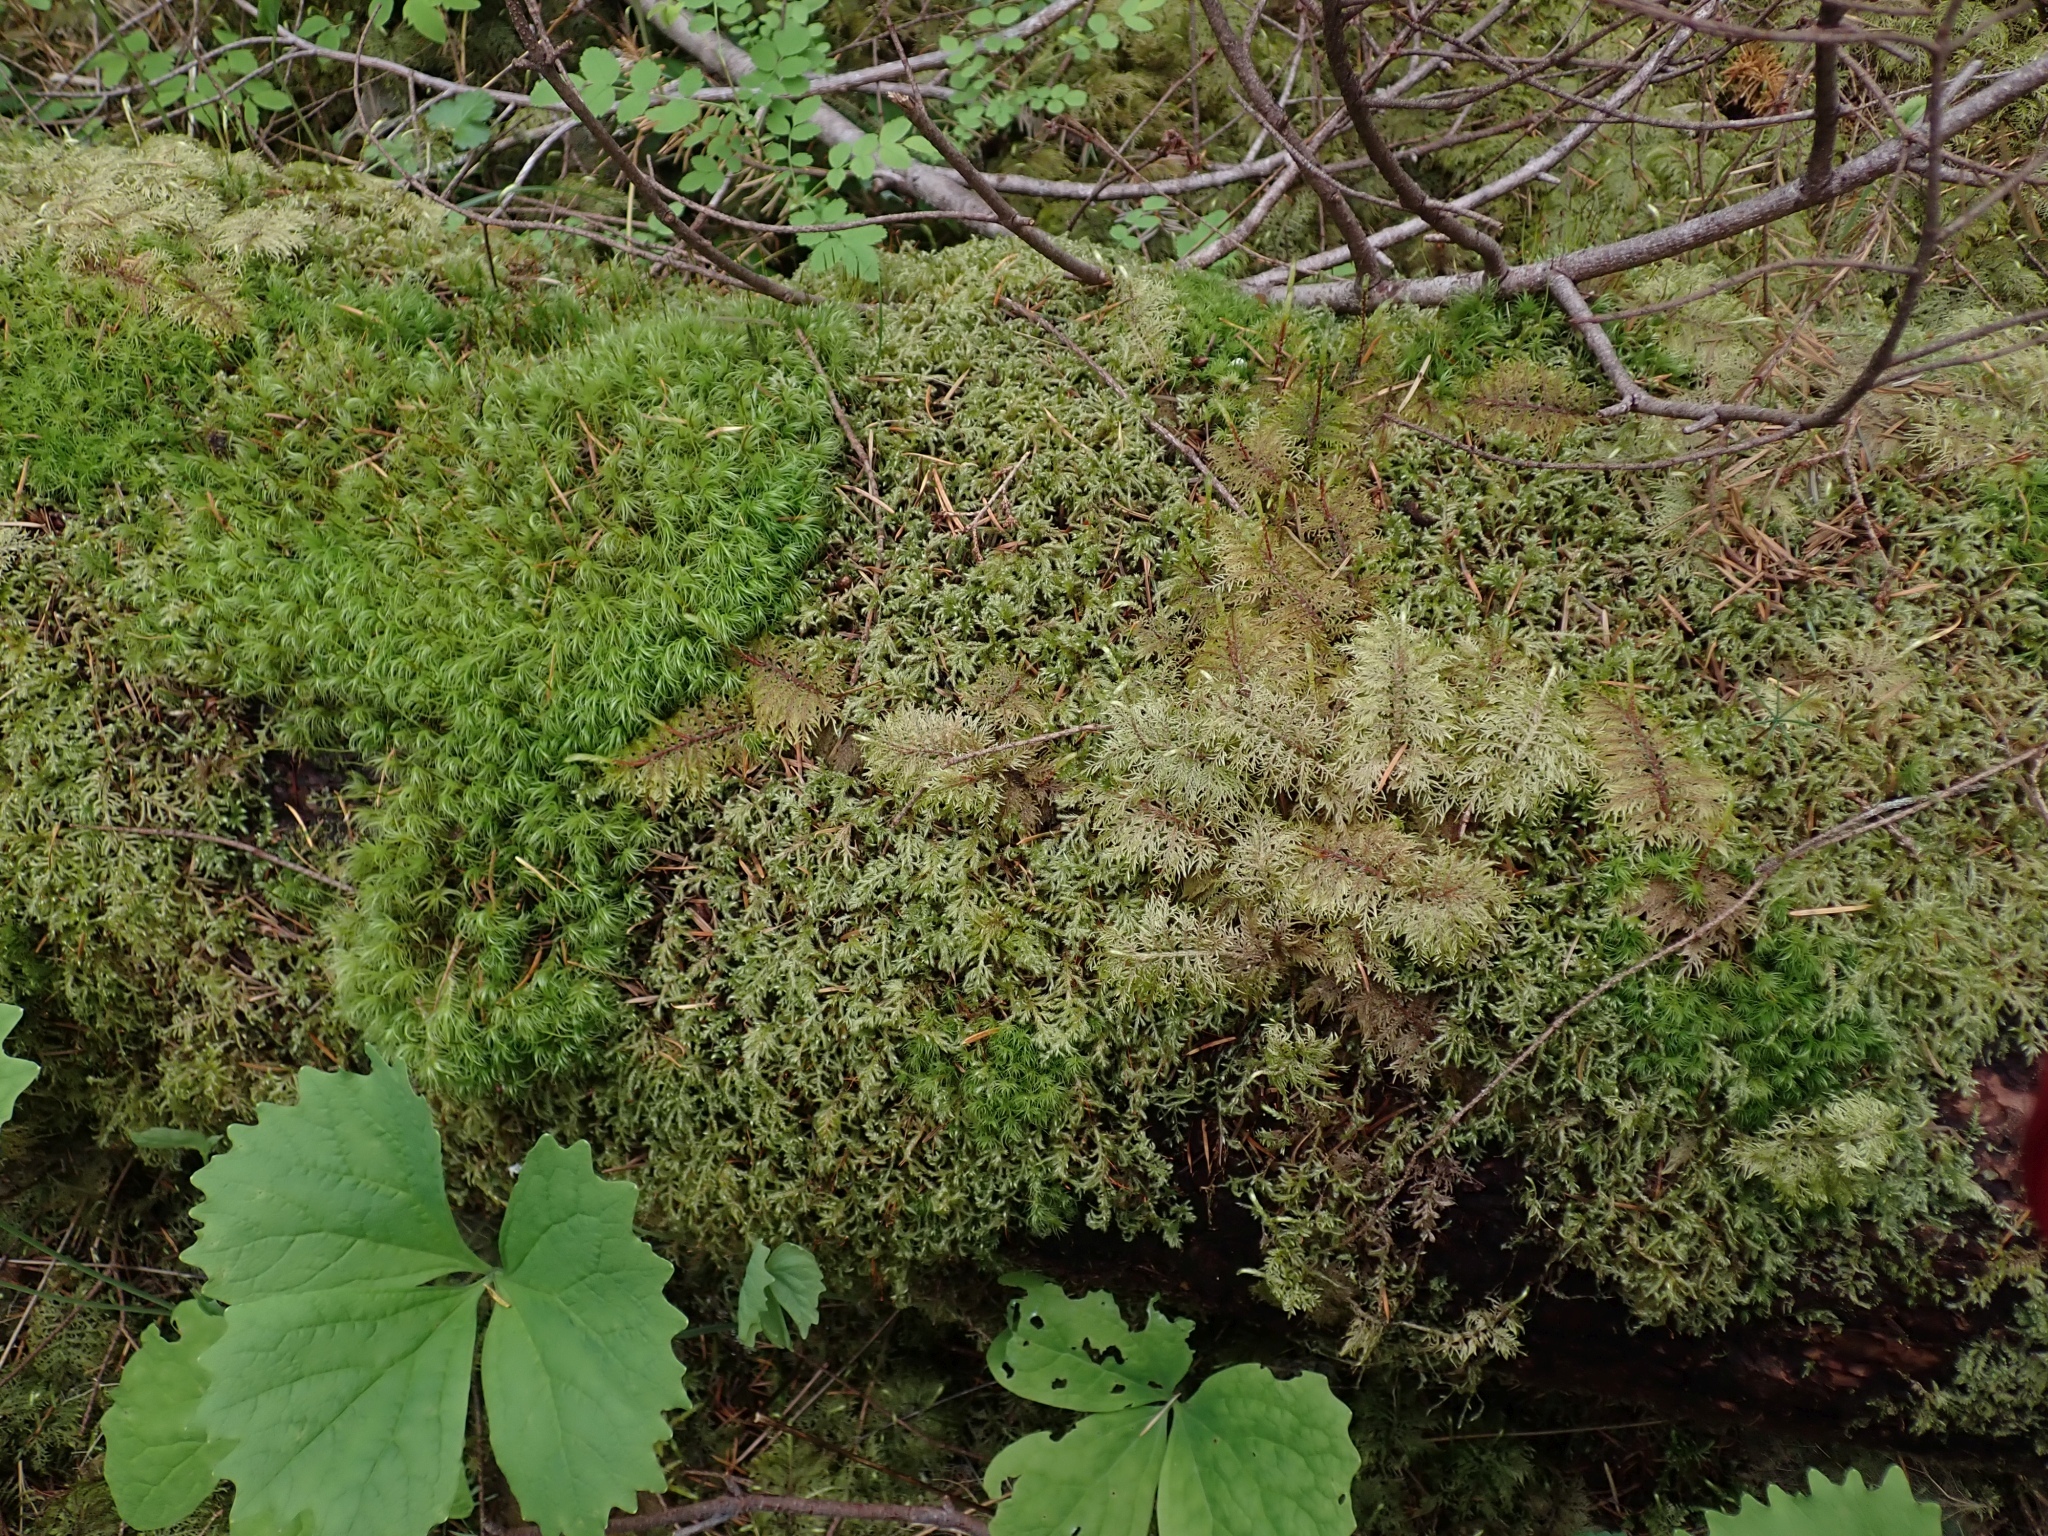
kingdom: Plantae
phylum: Bryophyta
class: Bryopsida
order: Hypnales
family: Hylocomiaceae
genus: Hylocomium
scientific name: Hylocomium splendens
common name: Stairstep moss
